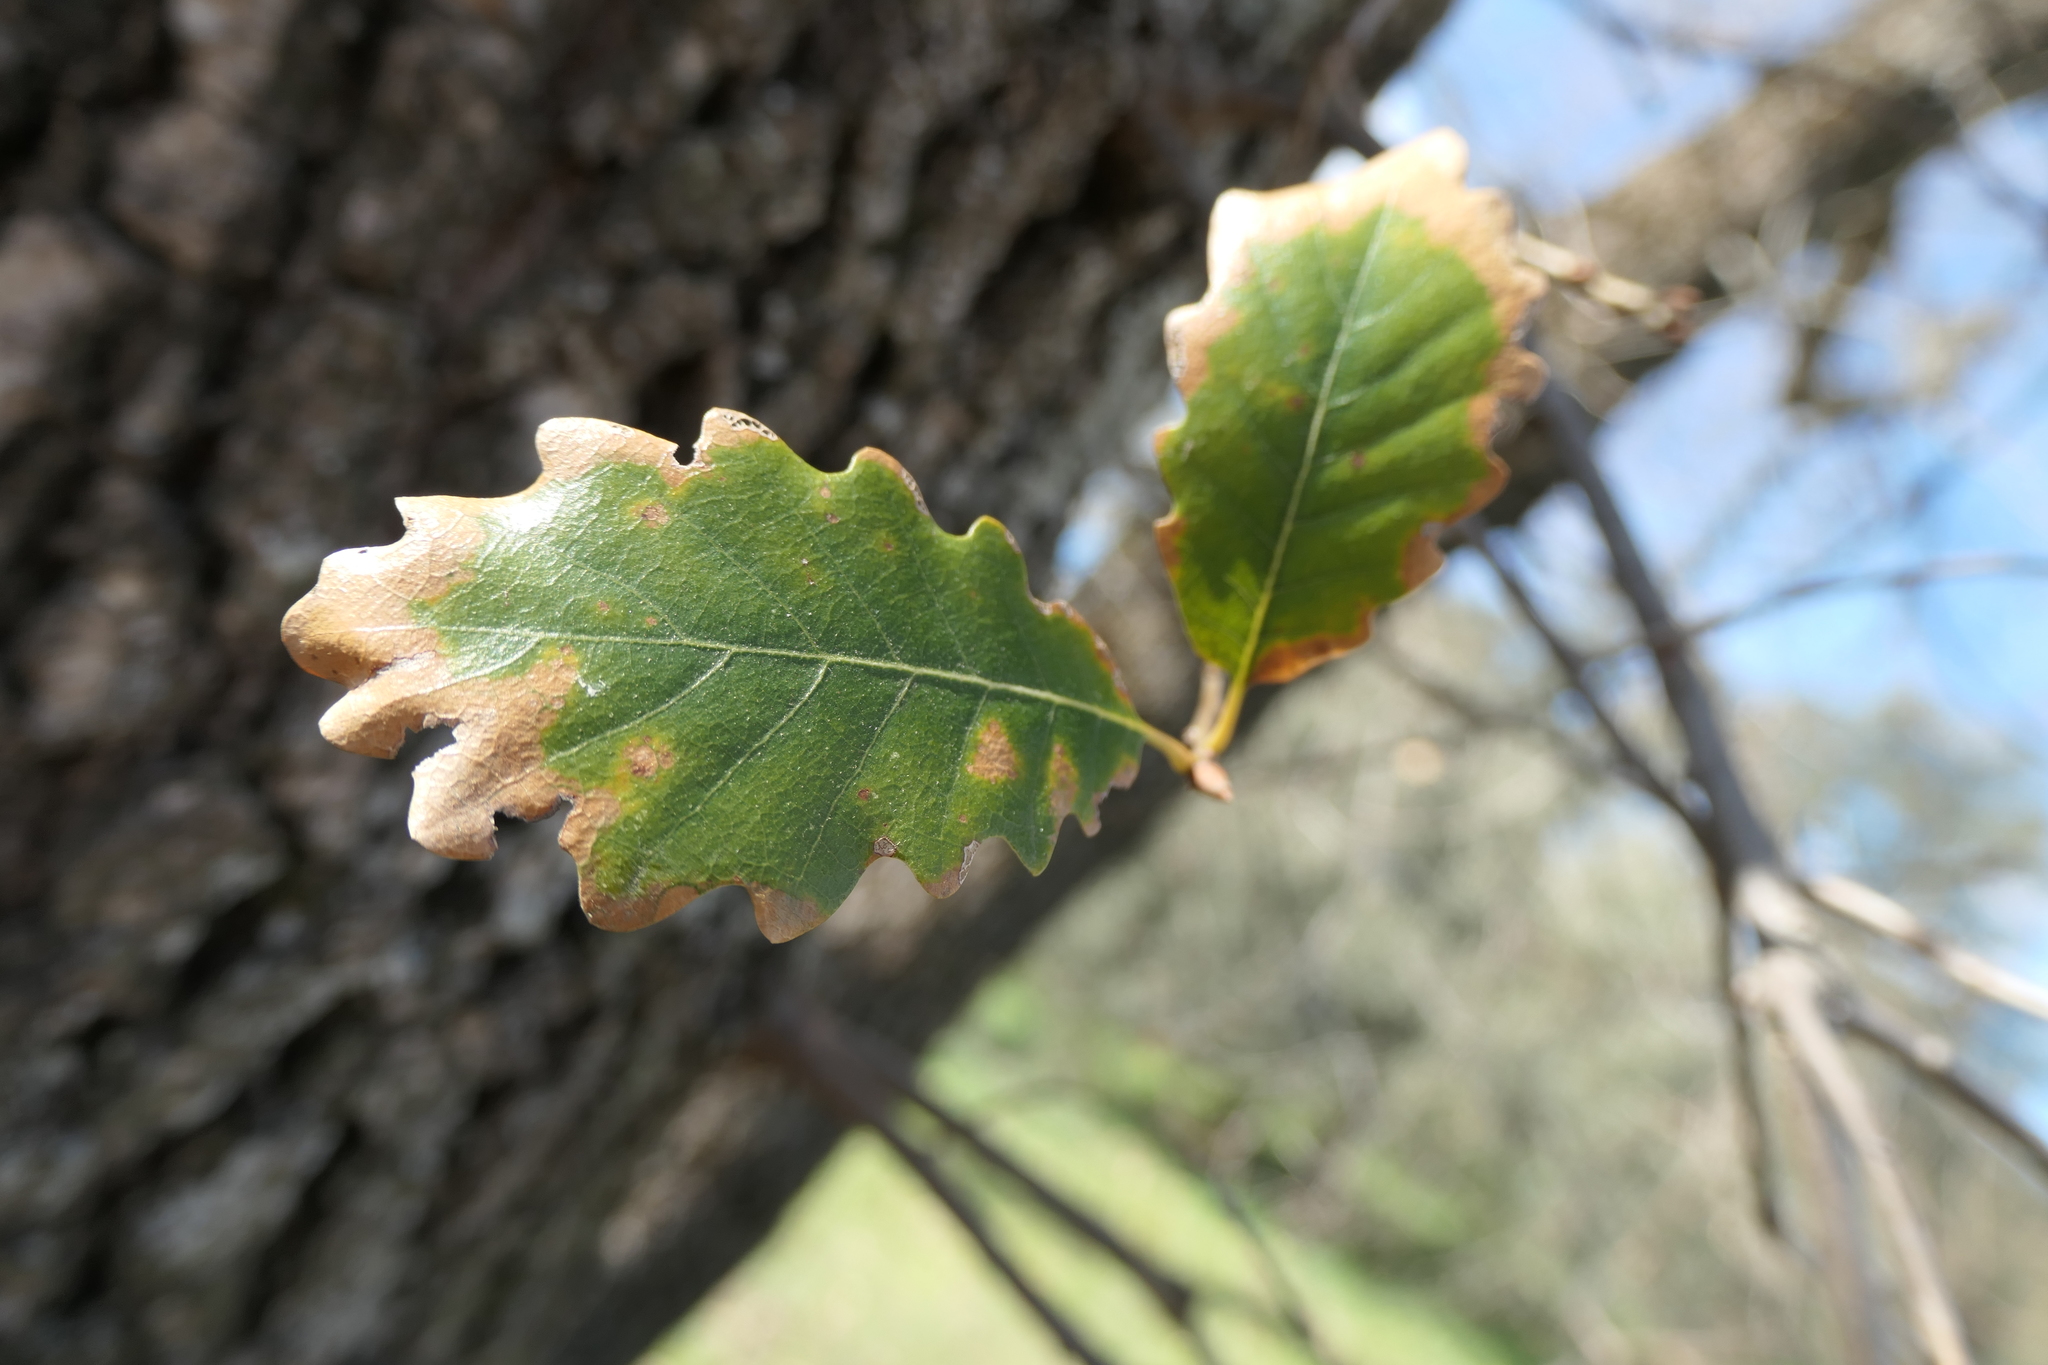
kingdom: Plantae
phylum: Tracheophyta
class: Magnoliopsida
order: Fagales
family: Fagaceae
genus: Quercus
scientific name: Quercus faginea
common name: Gall oak tree
